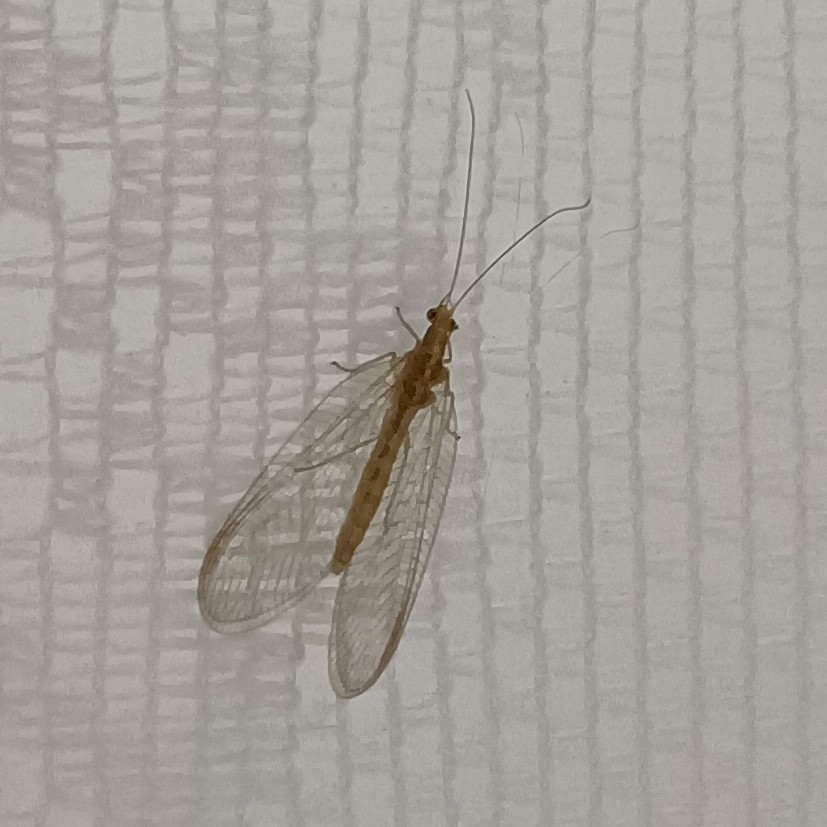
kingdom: Animalia
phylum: Arthropoda
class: Insecta
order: Neuroptera
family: Chrysopidae
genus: Chrysoperla
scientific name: Chrysoperla
